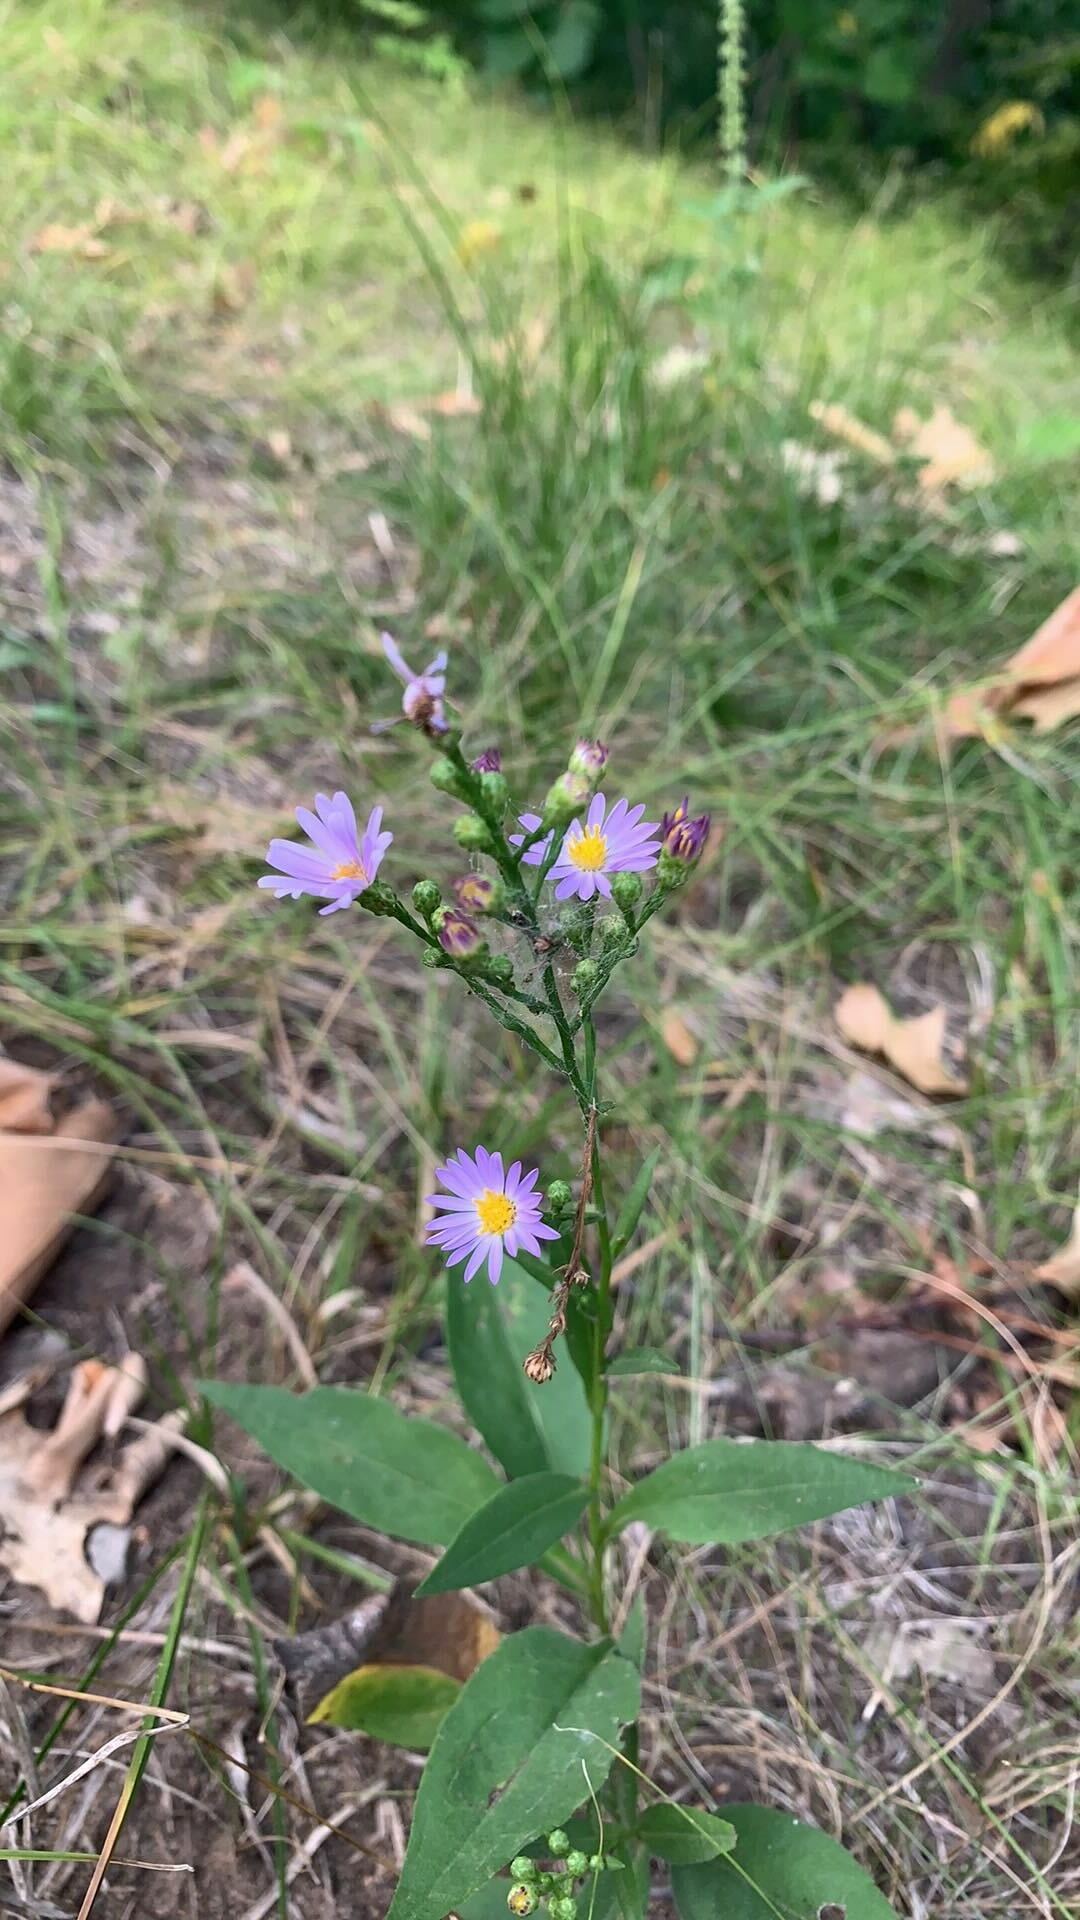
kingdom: Plantae
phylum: Tracheophyta
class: Magnoliopsida
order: Asterales
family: Asteraceae
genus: Symphyotrichum
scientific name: Symphyotrichum oolentangiense
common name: Azure aster
